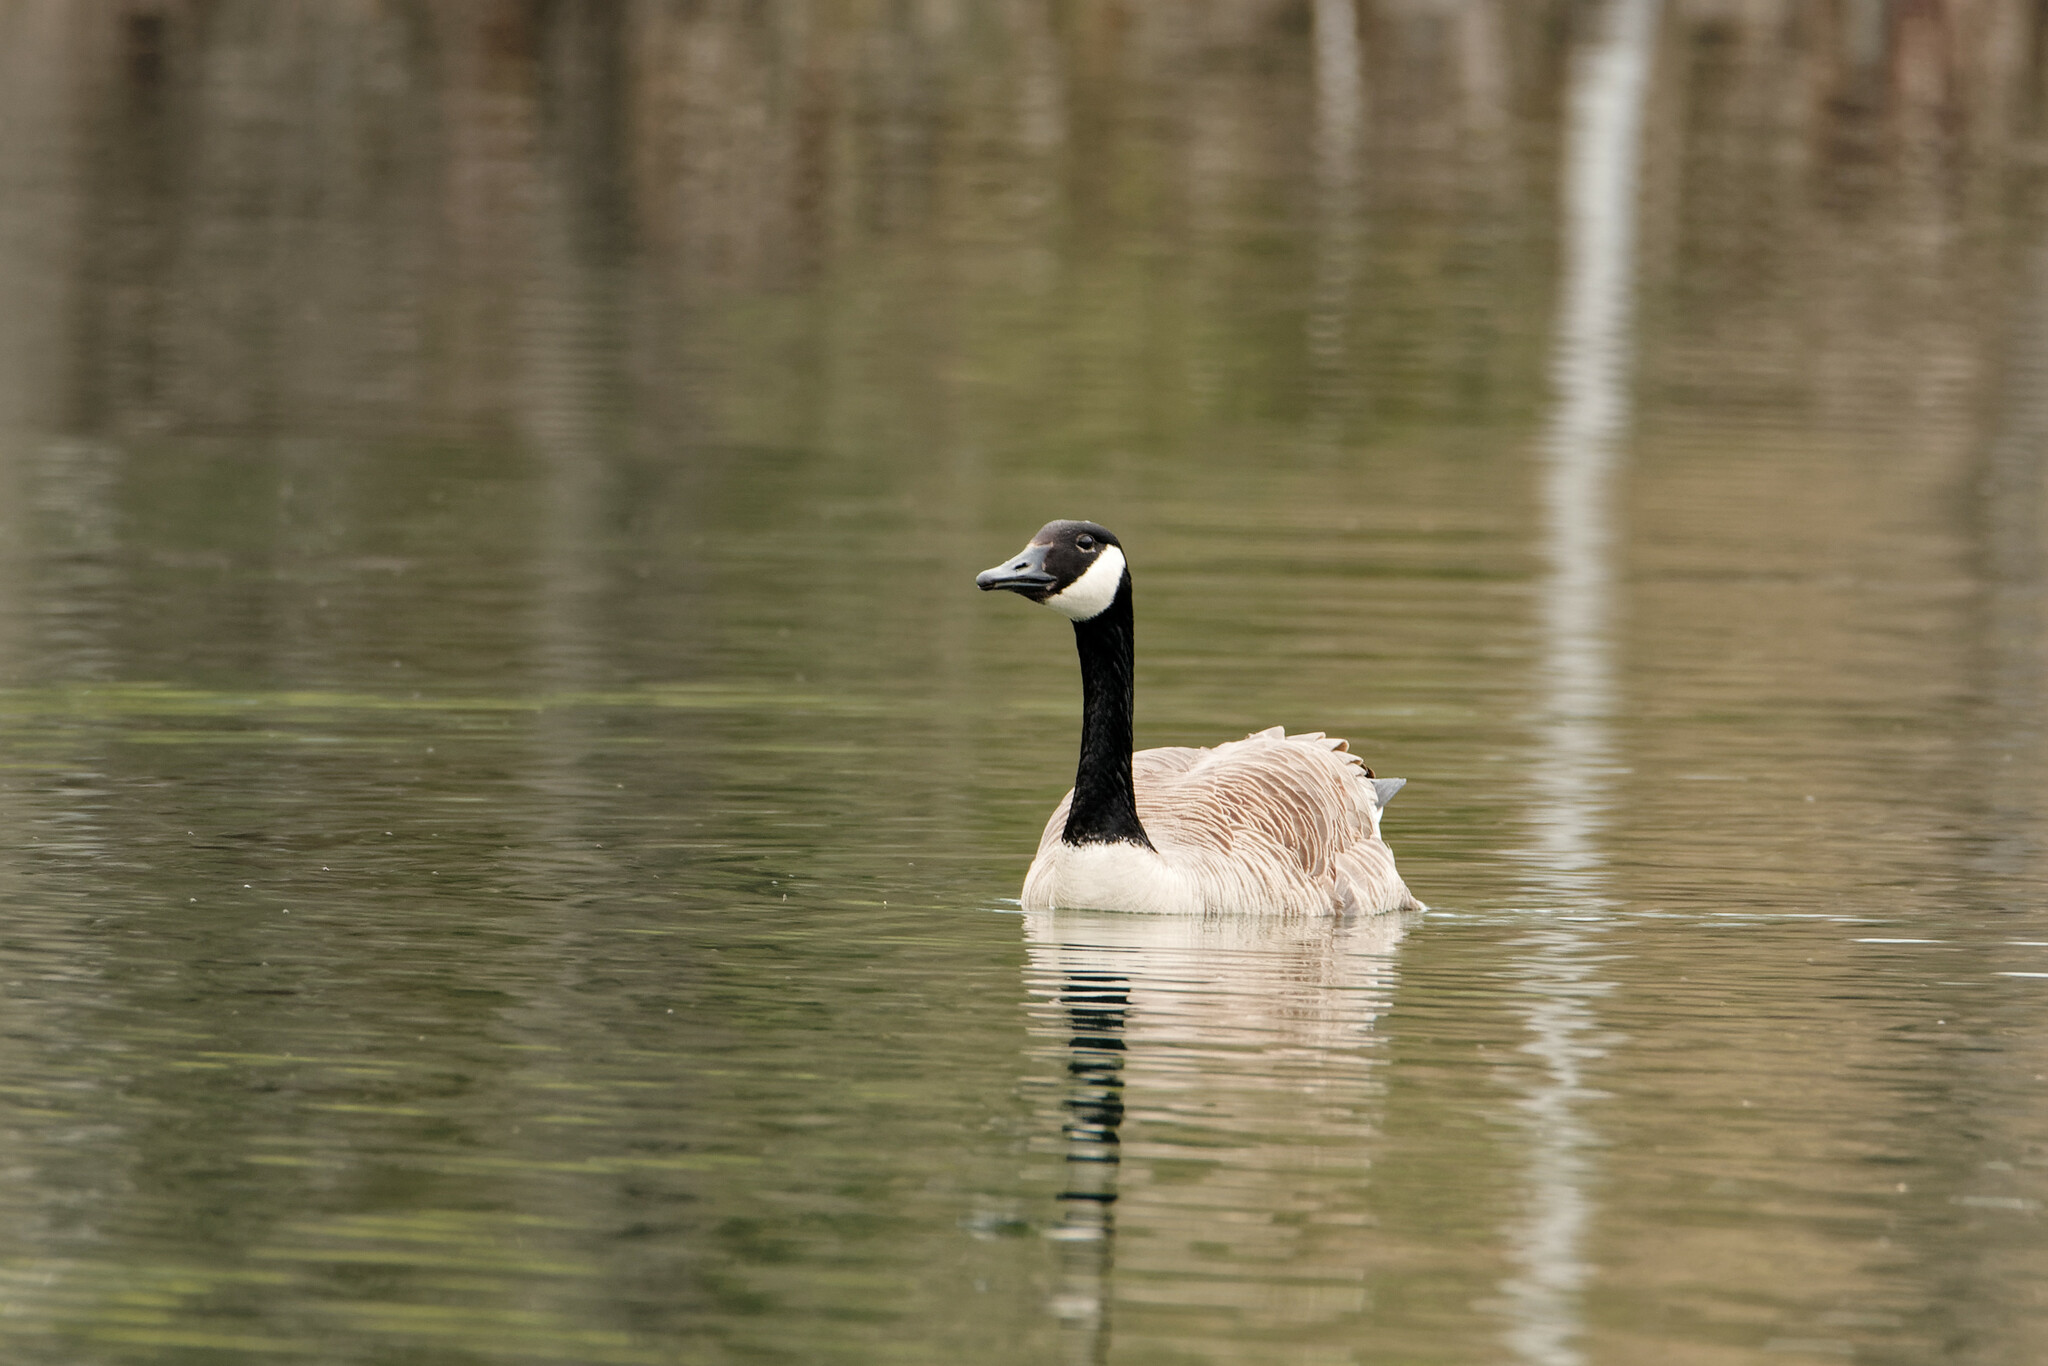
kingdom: Animalia
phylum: Chordata
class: Aves
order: Anseriformes
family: Anatidae
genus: Branta
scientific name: Branta canadensis
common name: Canada goose
